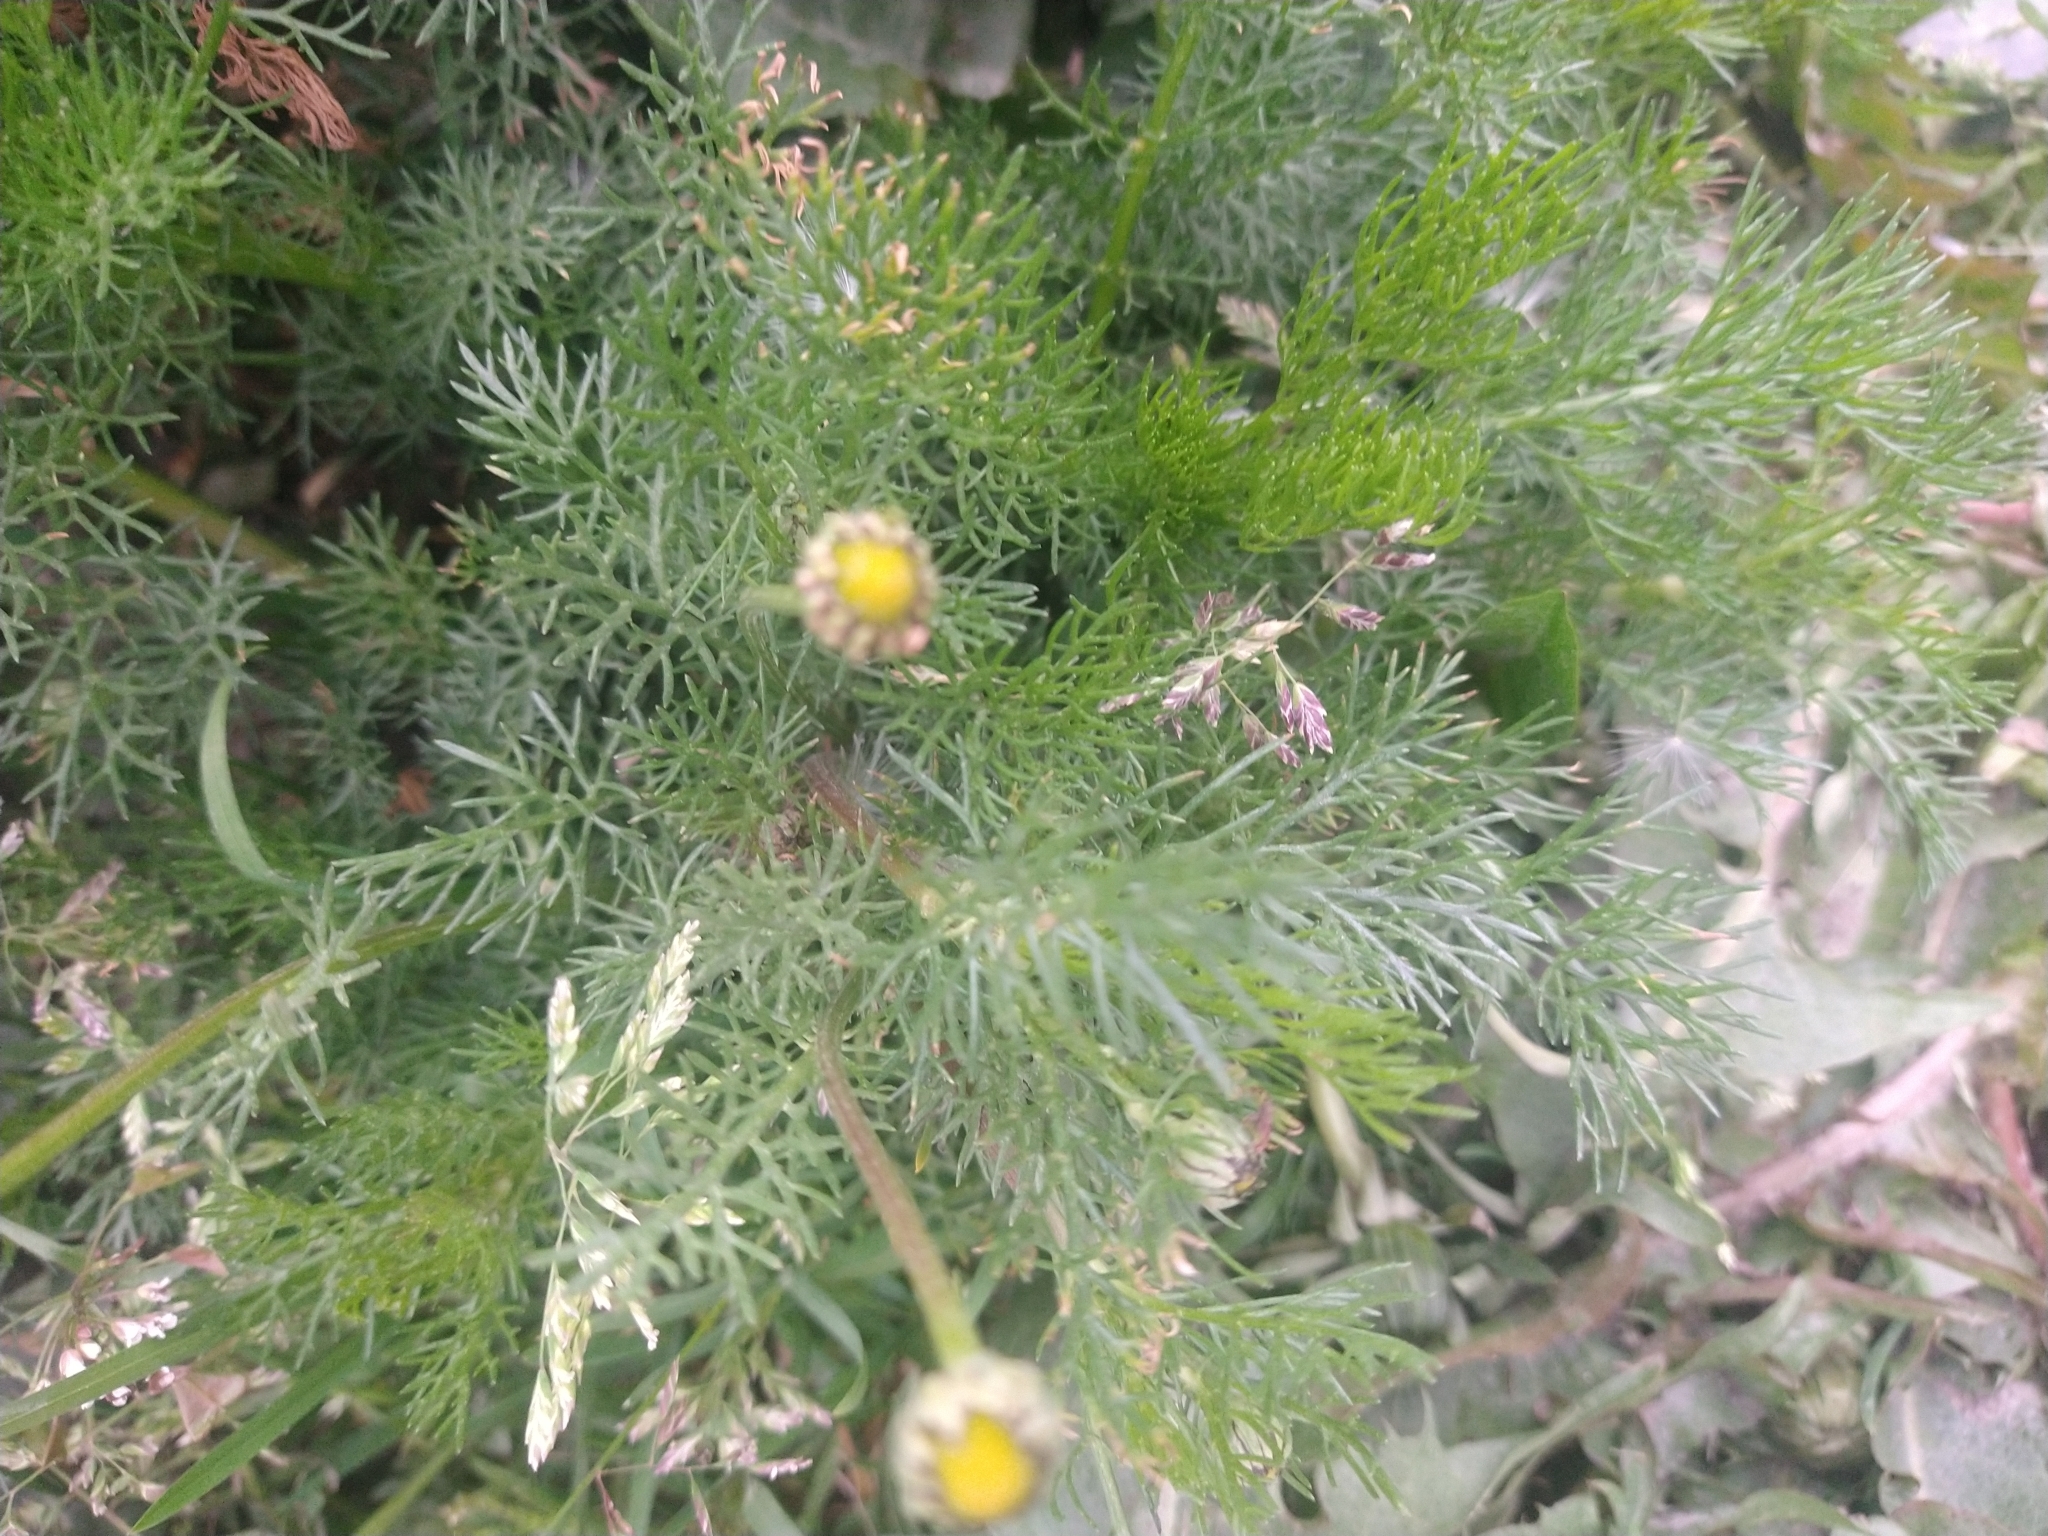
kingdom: Plantae
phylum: Tracheophyta
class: Magnoliopsida
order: Asterales
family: Asteraceae
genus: Tripleurospermum
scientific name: Tripleurospermum inodorum
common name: Scentless mayweed
